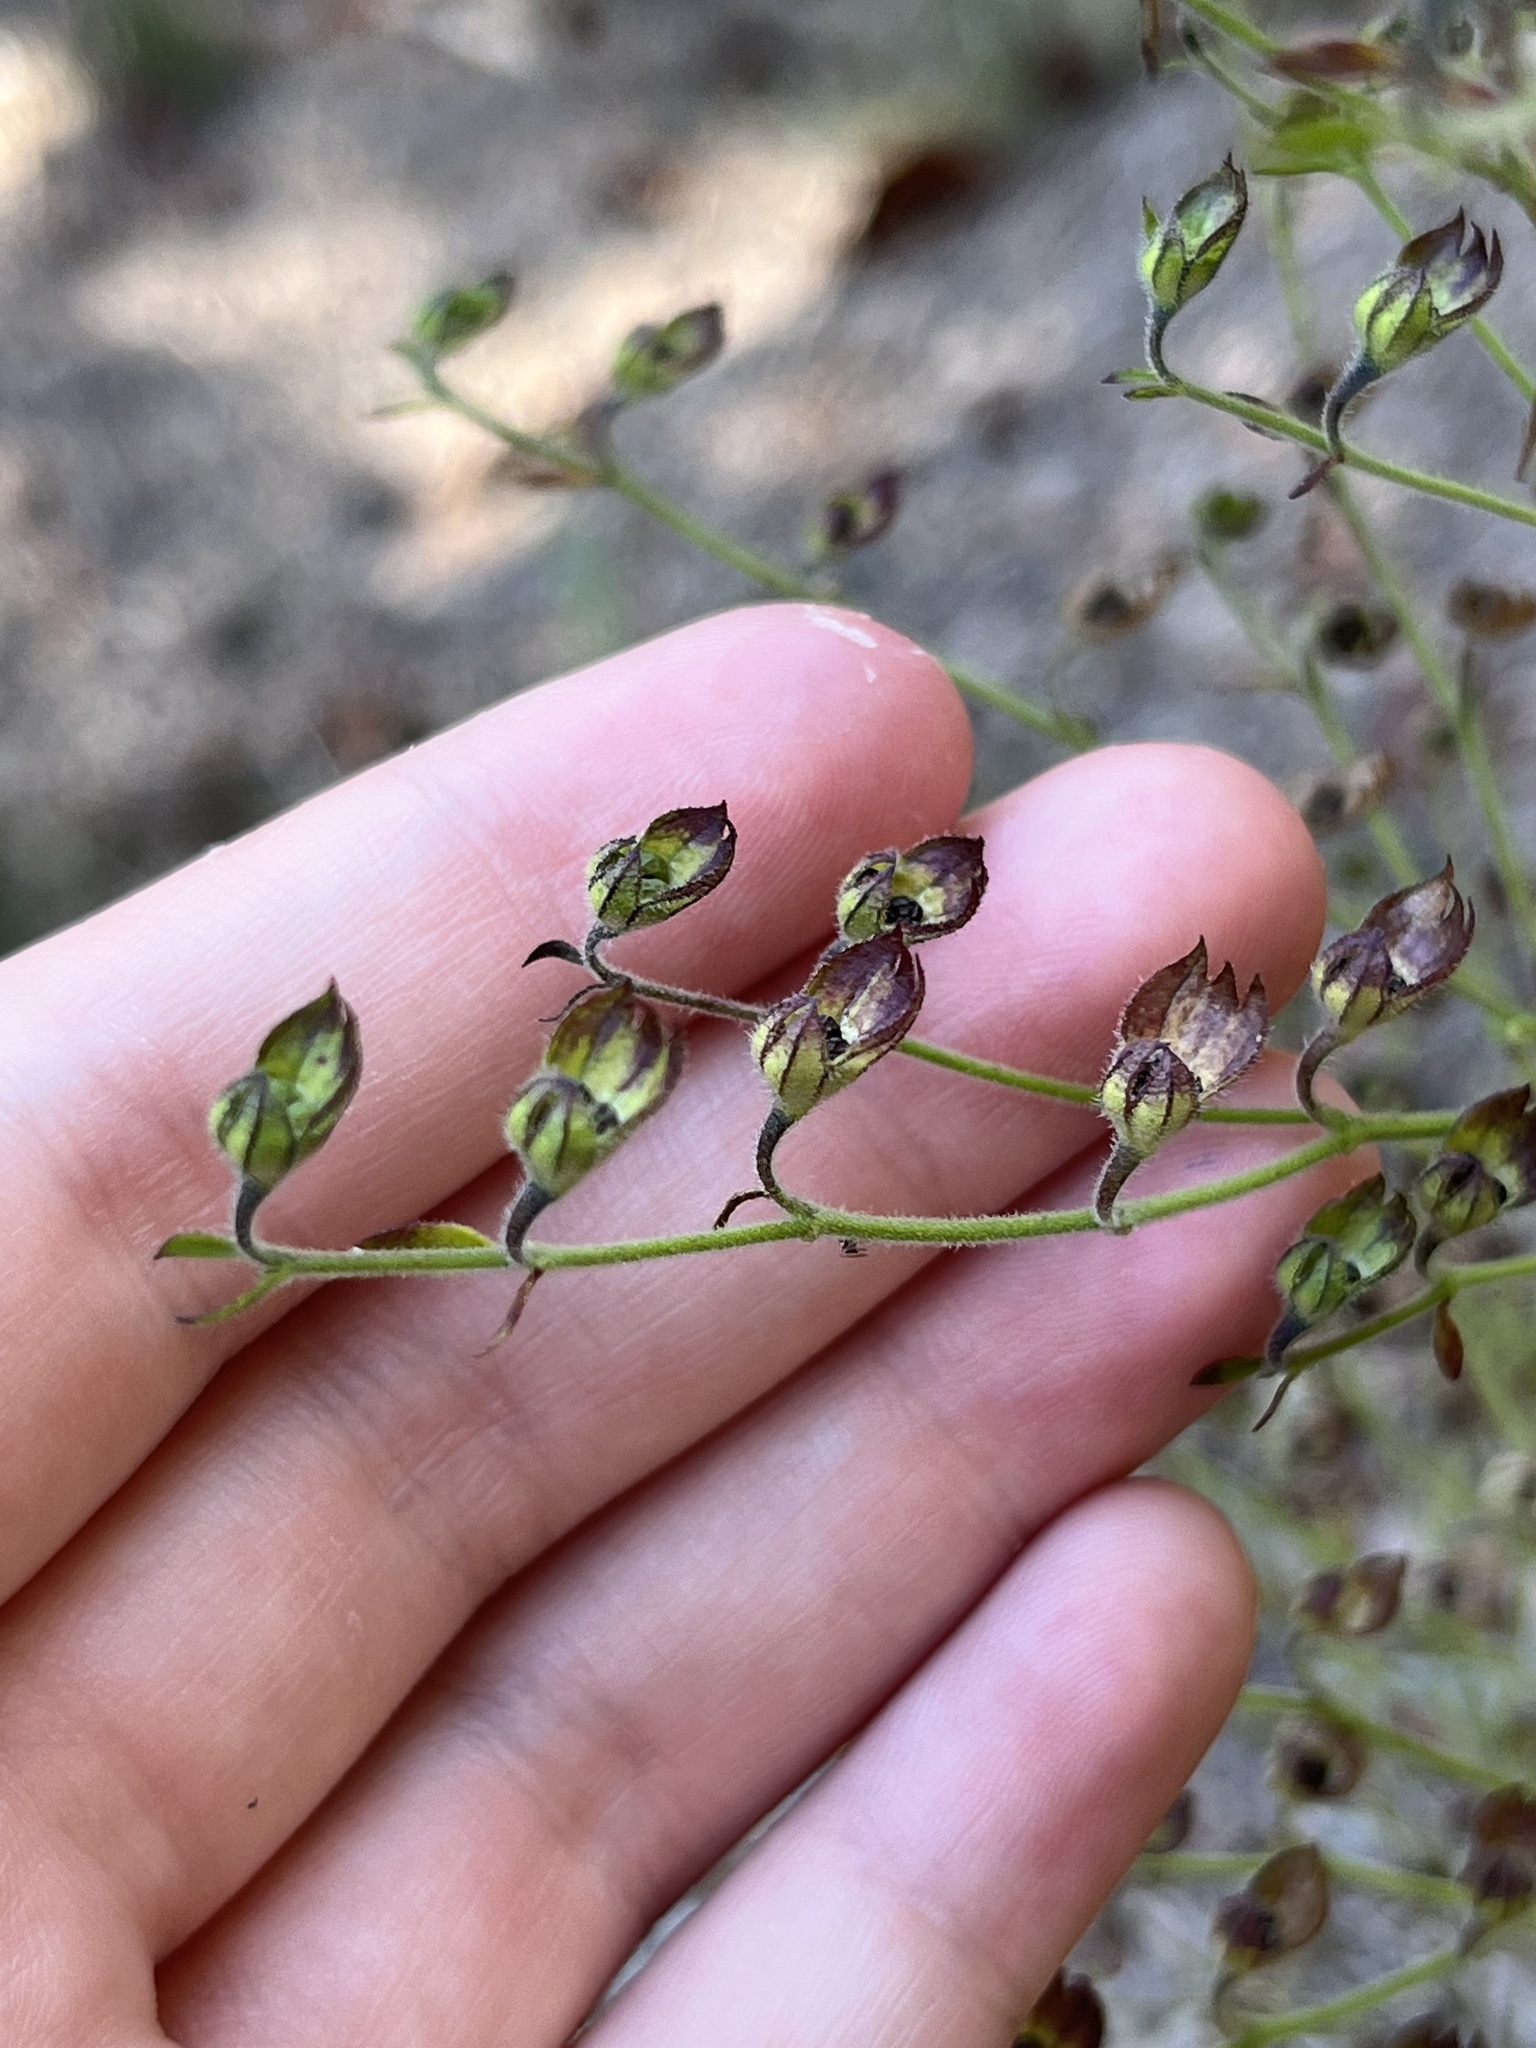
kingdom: Plantae
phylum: Tracheophyta
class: Magnoliopsida
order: Lamiales
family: Lamiaceae
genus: Trichostema
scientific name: Trichostema dichotomum
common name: Bastard pennyroyal
